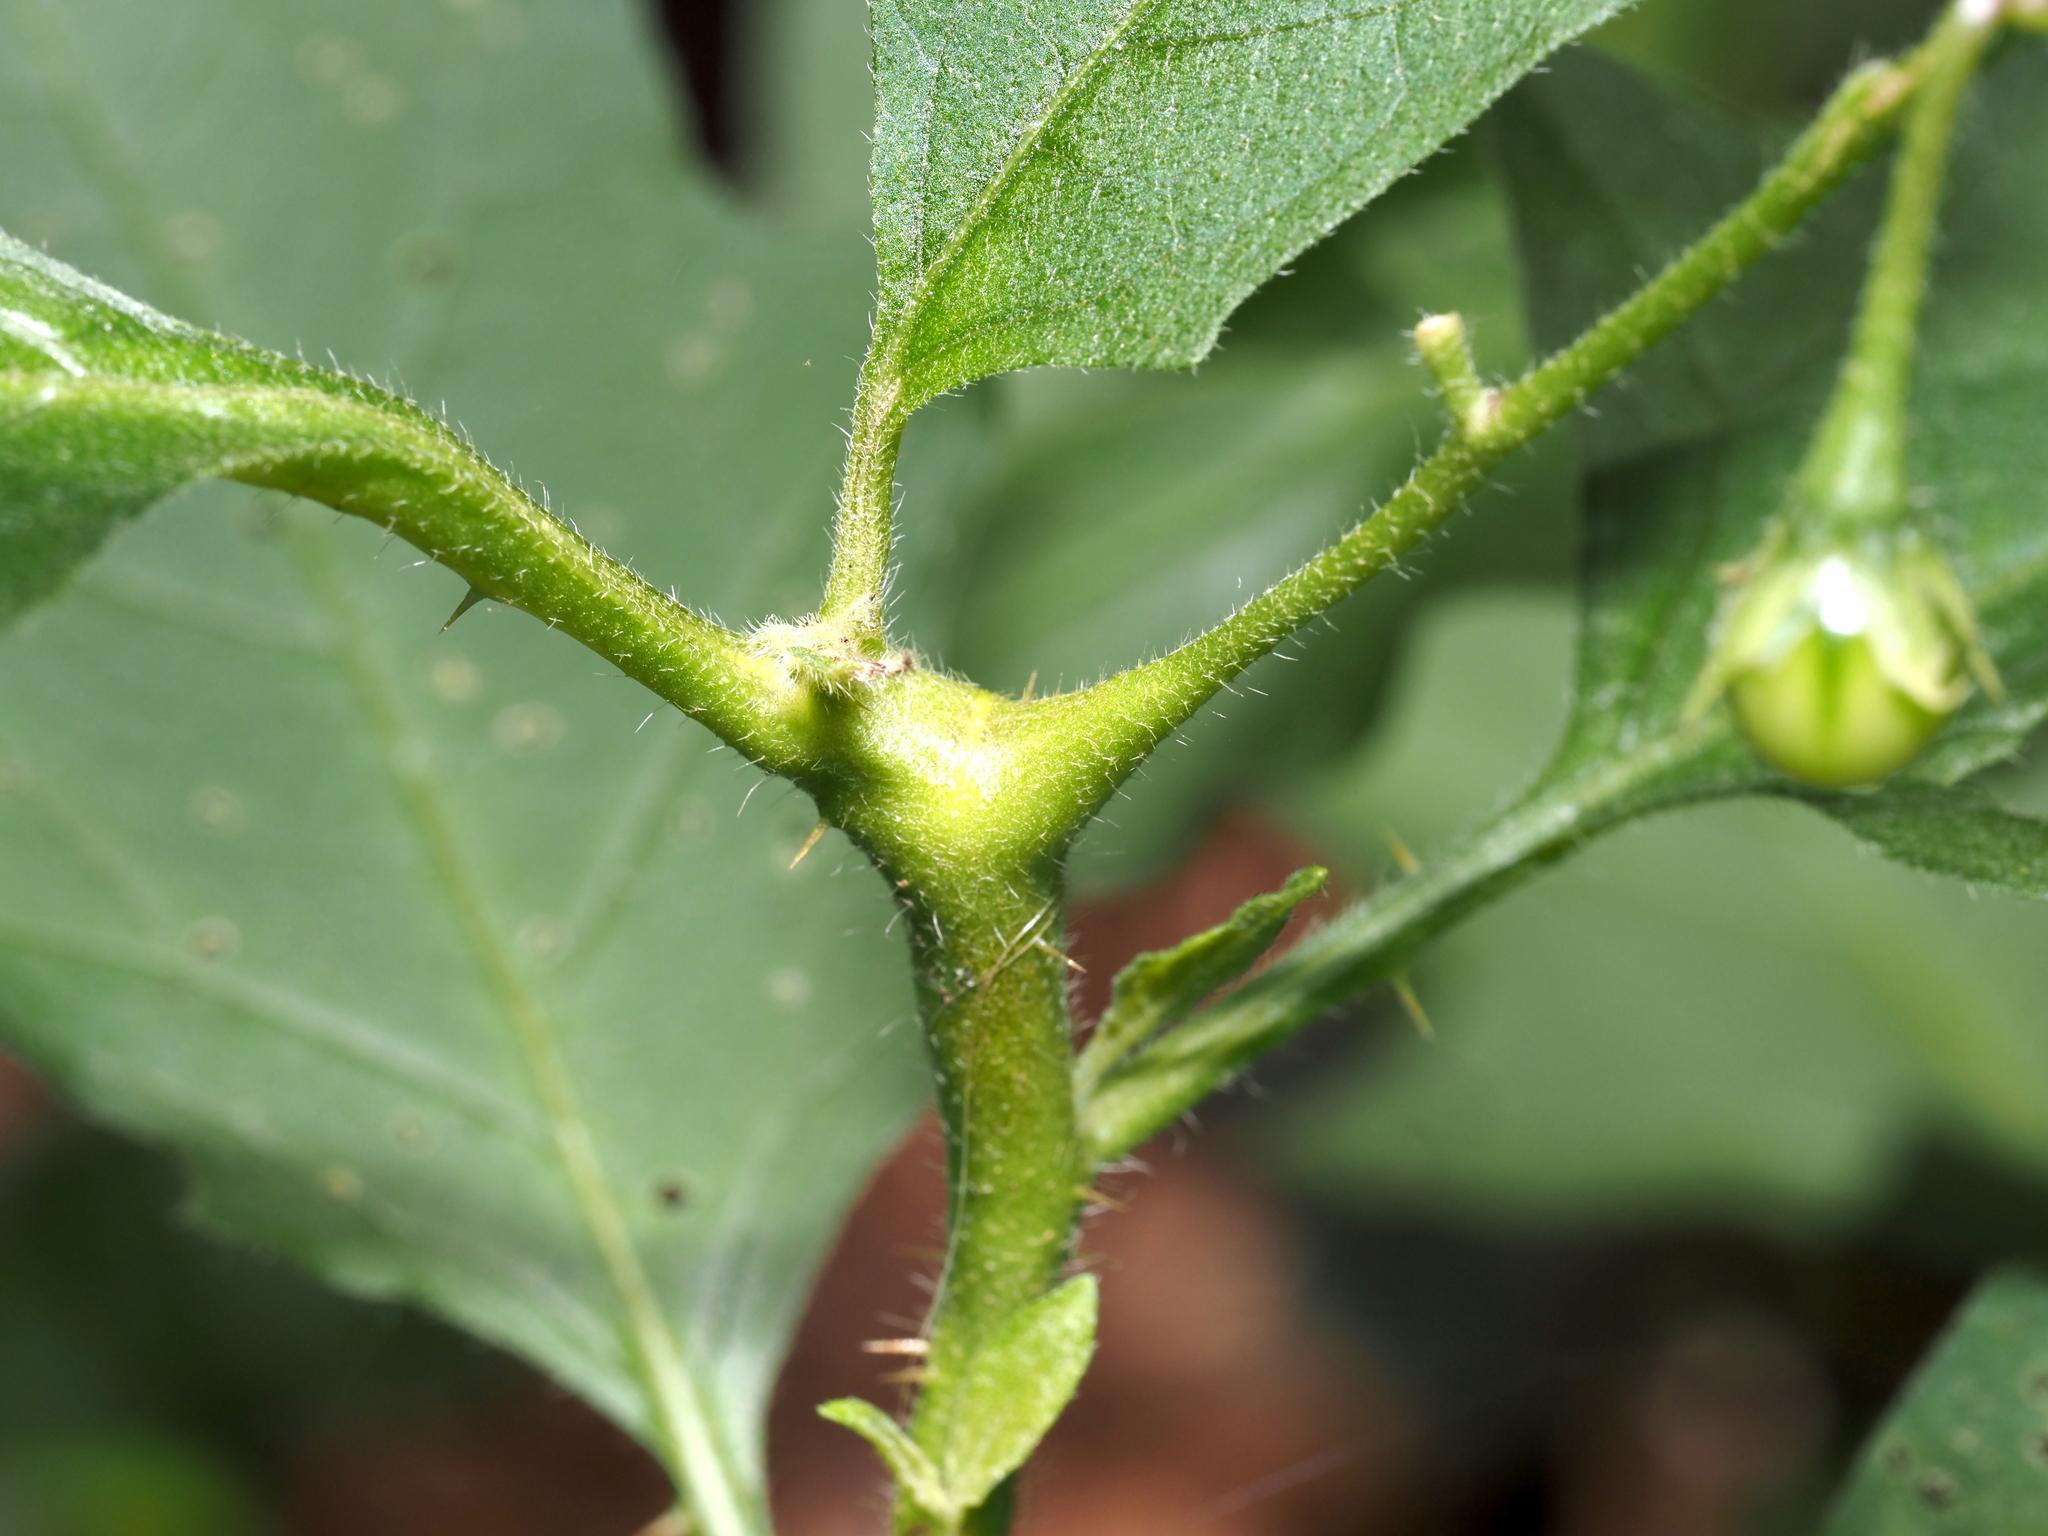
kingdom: Animalia
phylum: Arthropoda
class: Insecta
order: Diptera
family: Cecidomyiidae
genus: Lasioptera
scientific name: Lasioptera solani
